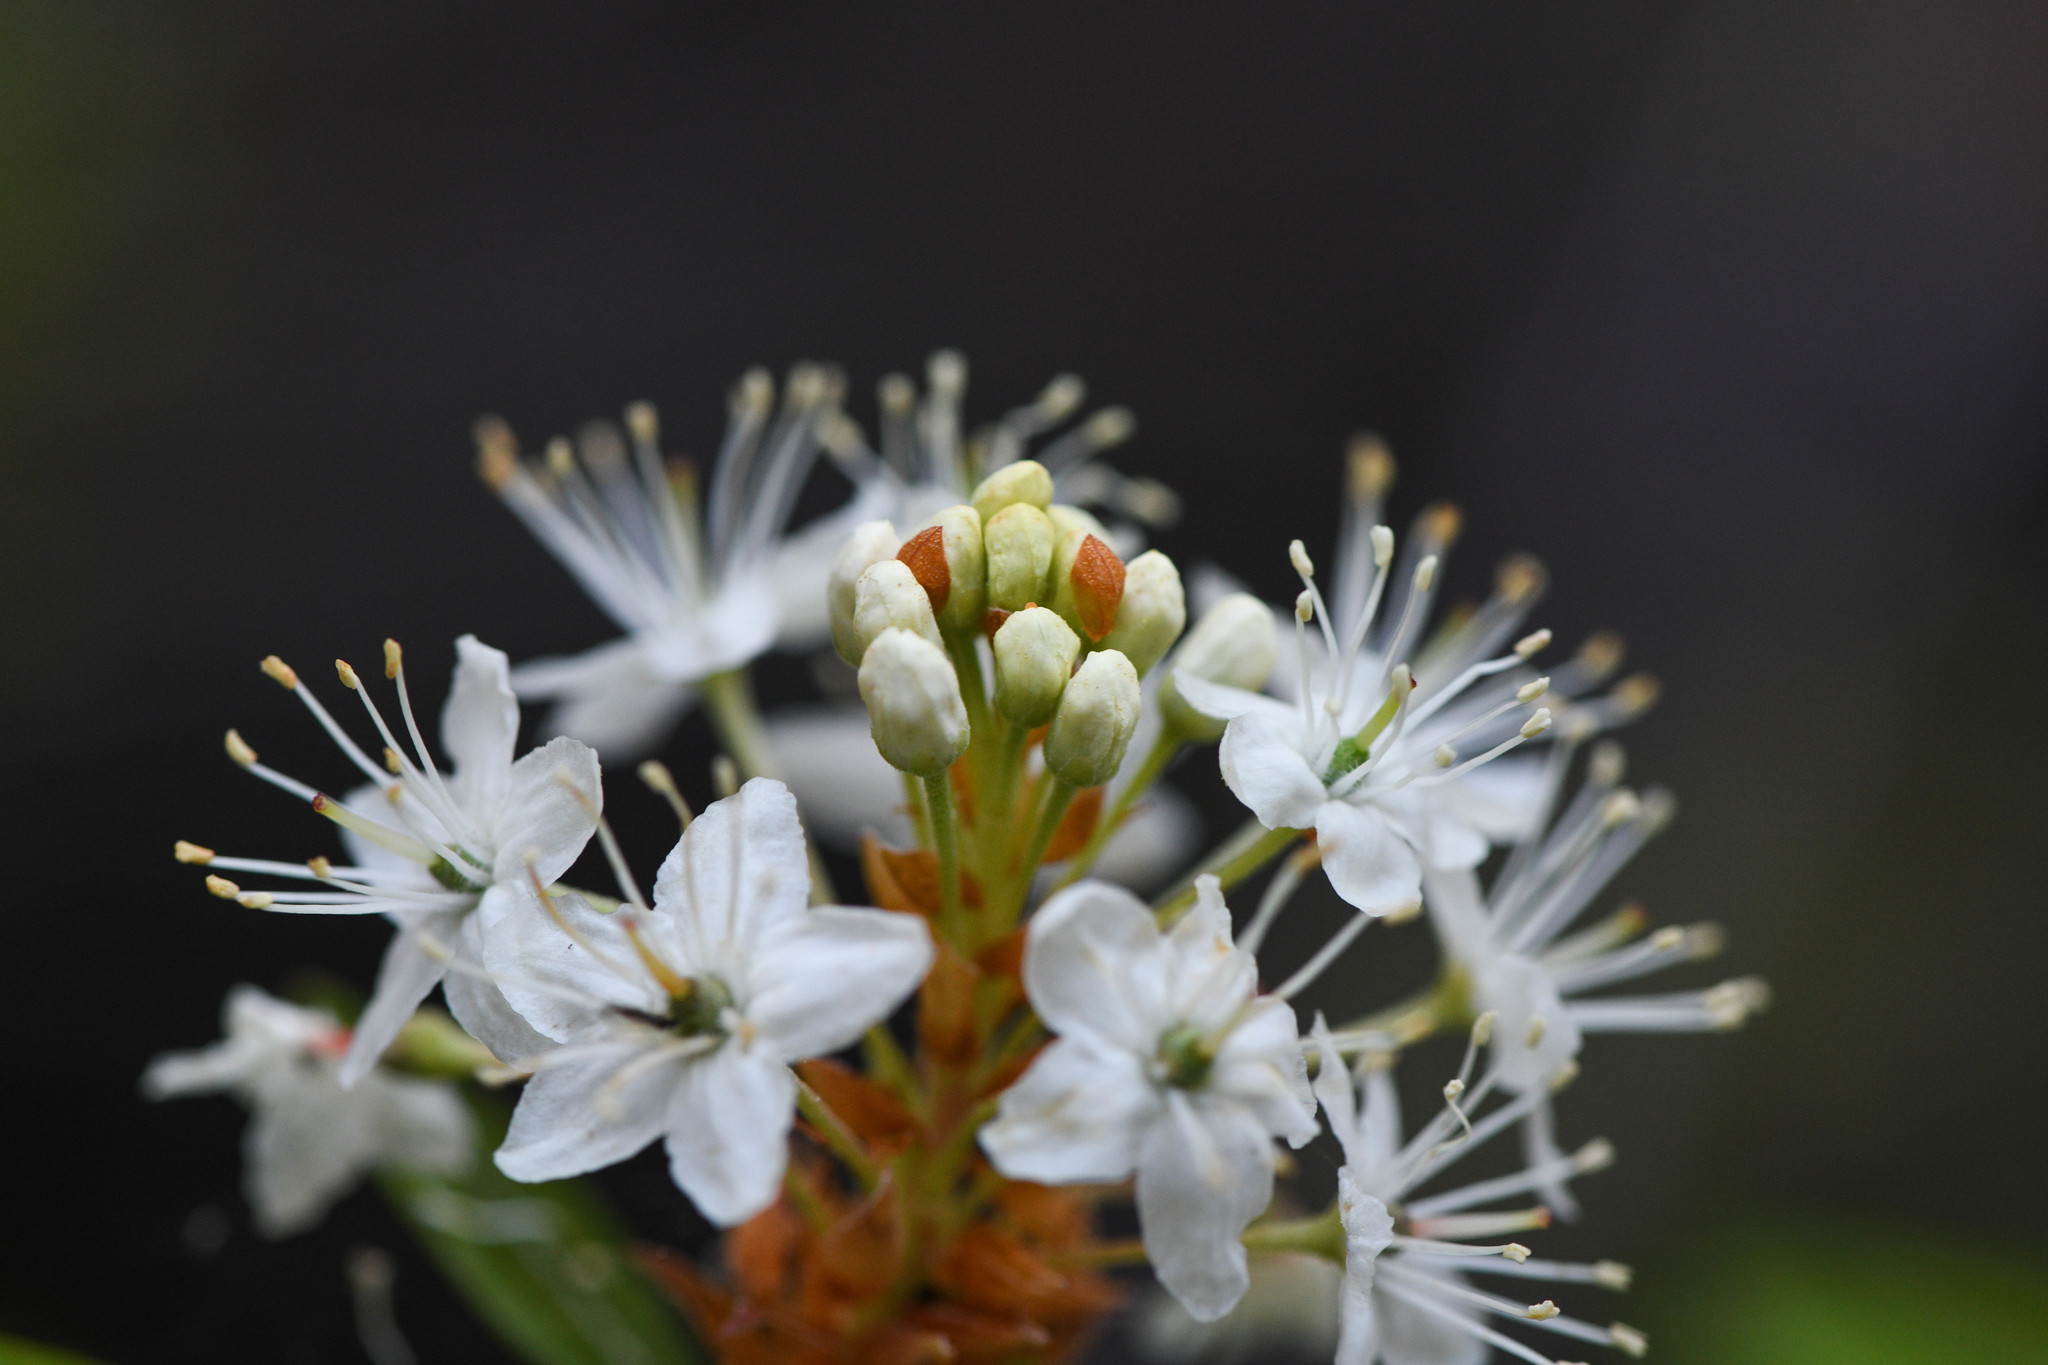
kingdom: Plantae
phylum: Tracheophyta
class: Magnoliopsida
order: Ericales
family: Ericaceae
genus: Rhododendron
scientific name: Rhododendron columbianum
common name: Western labrador tea
